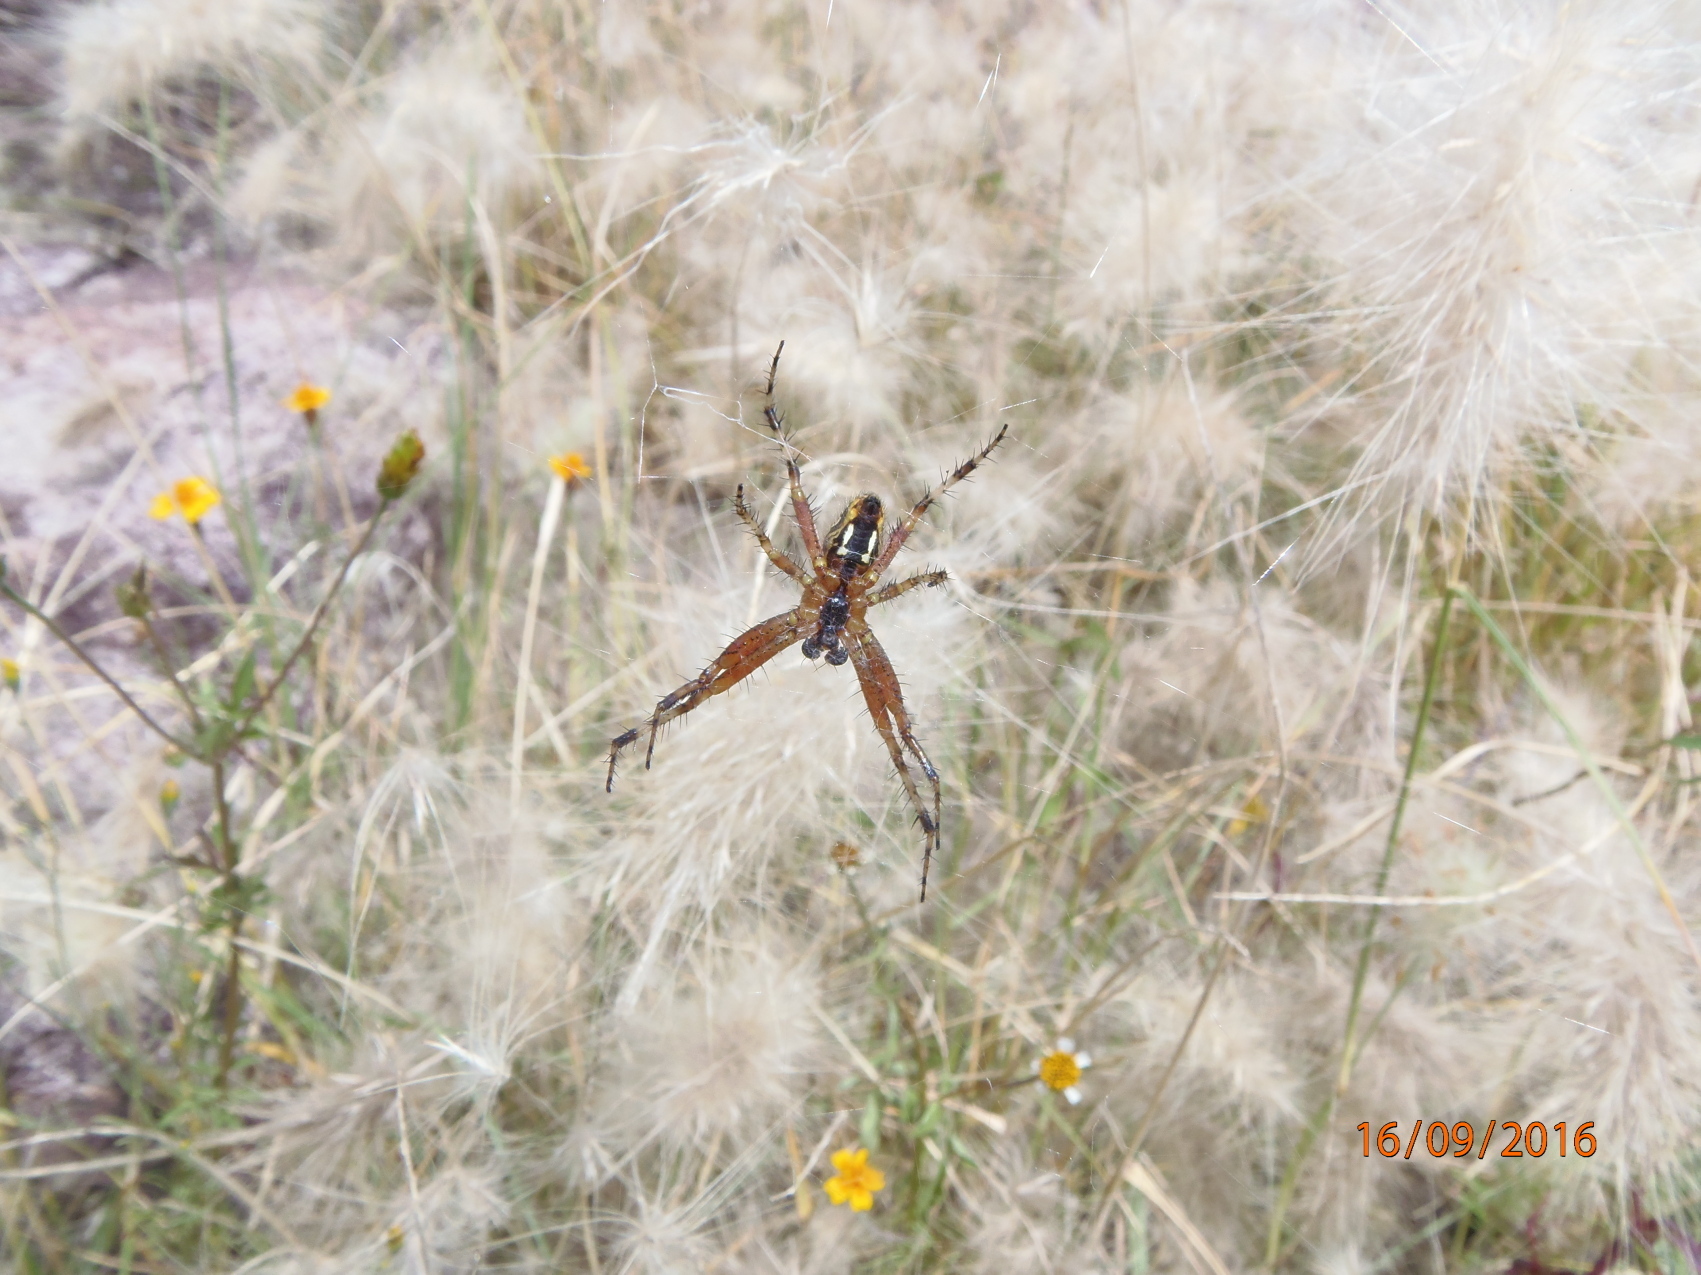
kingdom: Animalia
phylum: Arthropoda
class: Arachnida
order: Araneae
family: Araneidae
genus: Neoscona
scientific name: Neoscona oaxacensis
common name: Orb weavers
